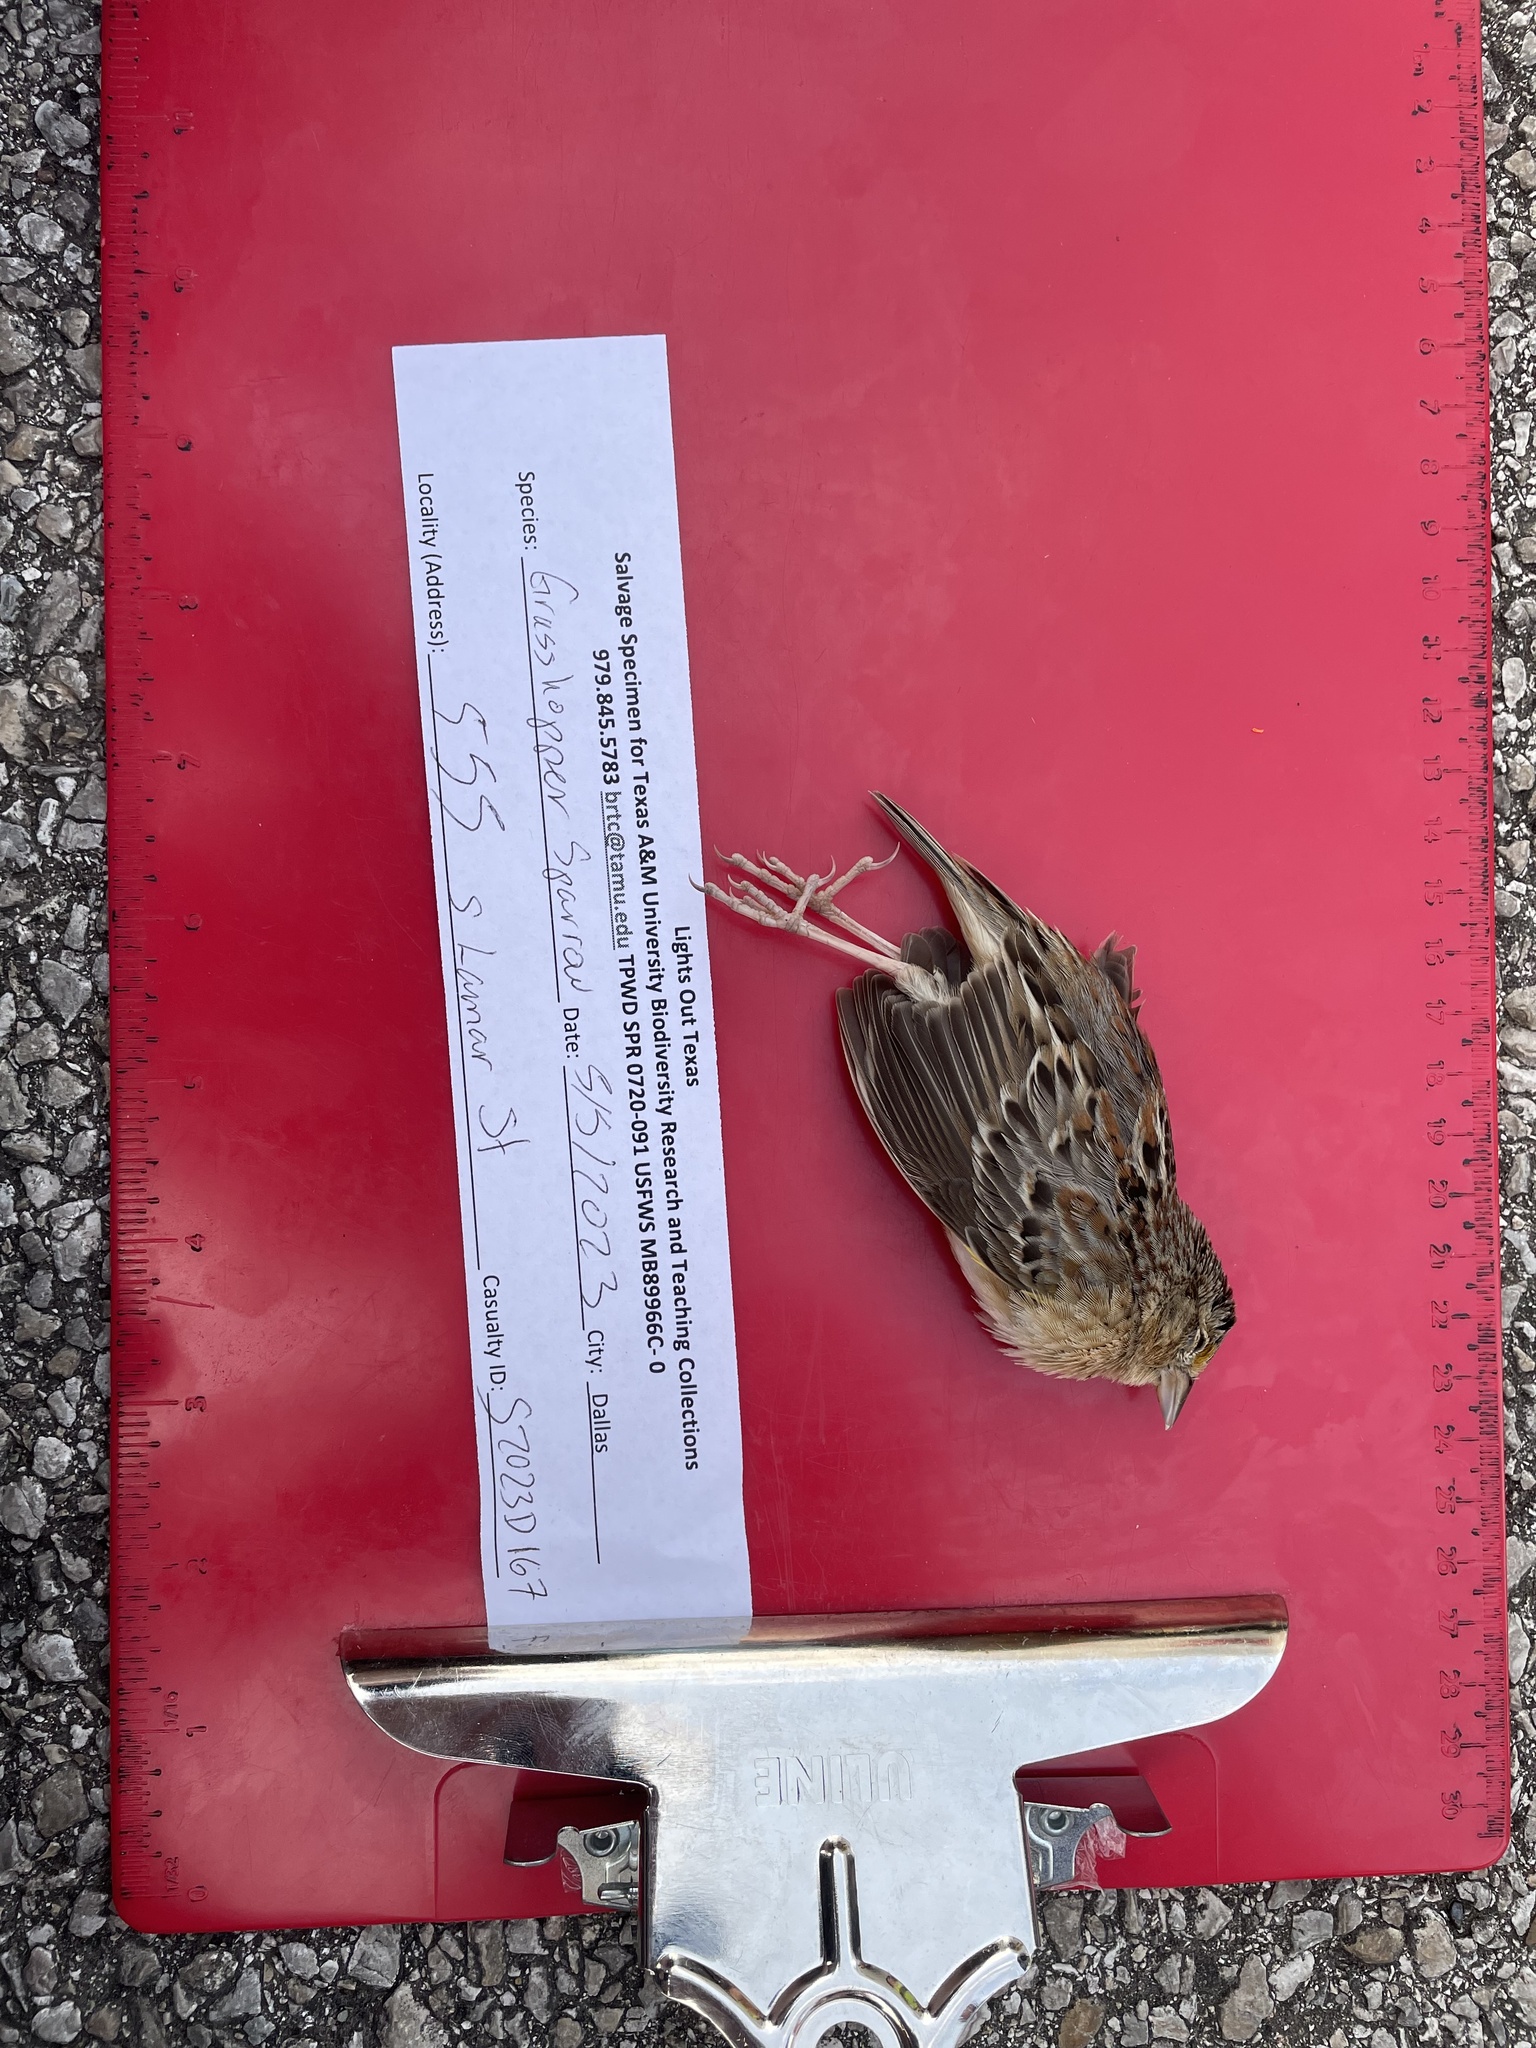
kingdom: Animalia
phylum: Chordata
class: Aves
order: Passeriformes
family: Passerellidae
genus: Ammodramus
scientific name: Ammodramus savannarum
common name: Grasshopper sparrow
